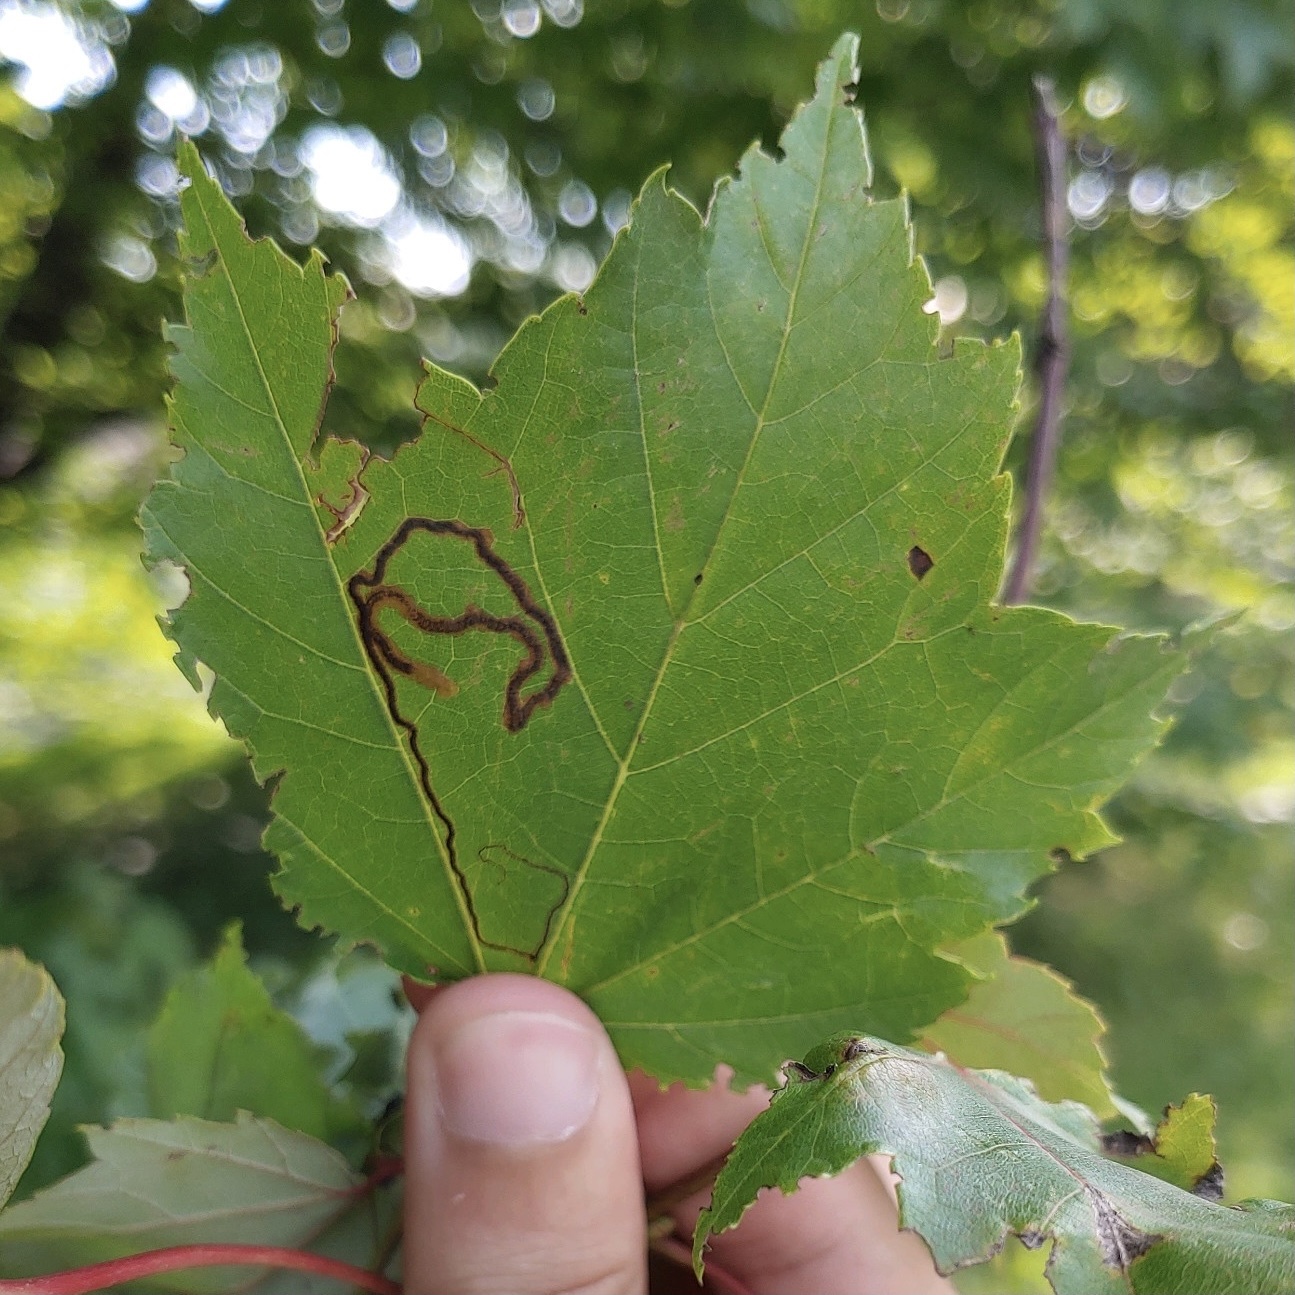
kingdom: Animalia
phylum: Arthropoda
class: Insecta
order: Lepidoptera
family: Nepticulidae
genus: Glaucolepis
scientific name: Glaucolepis saccharella
